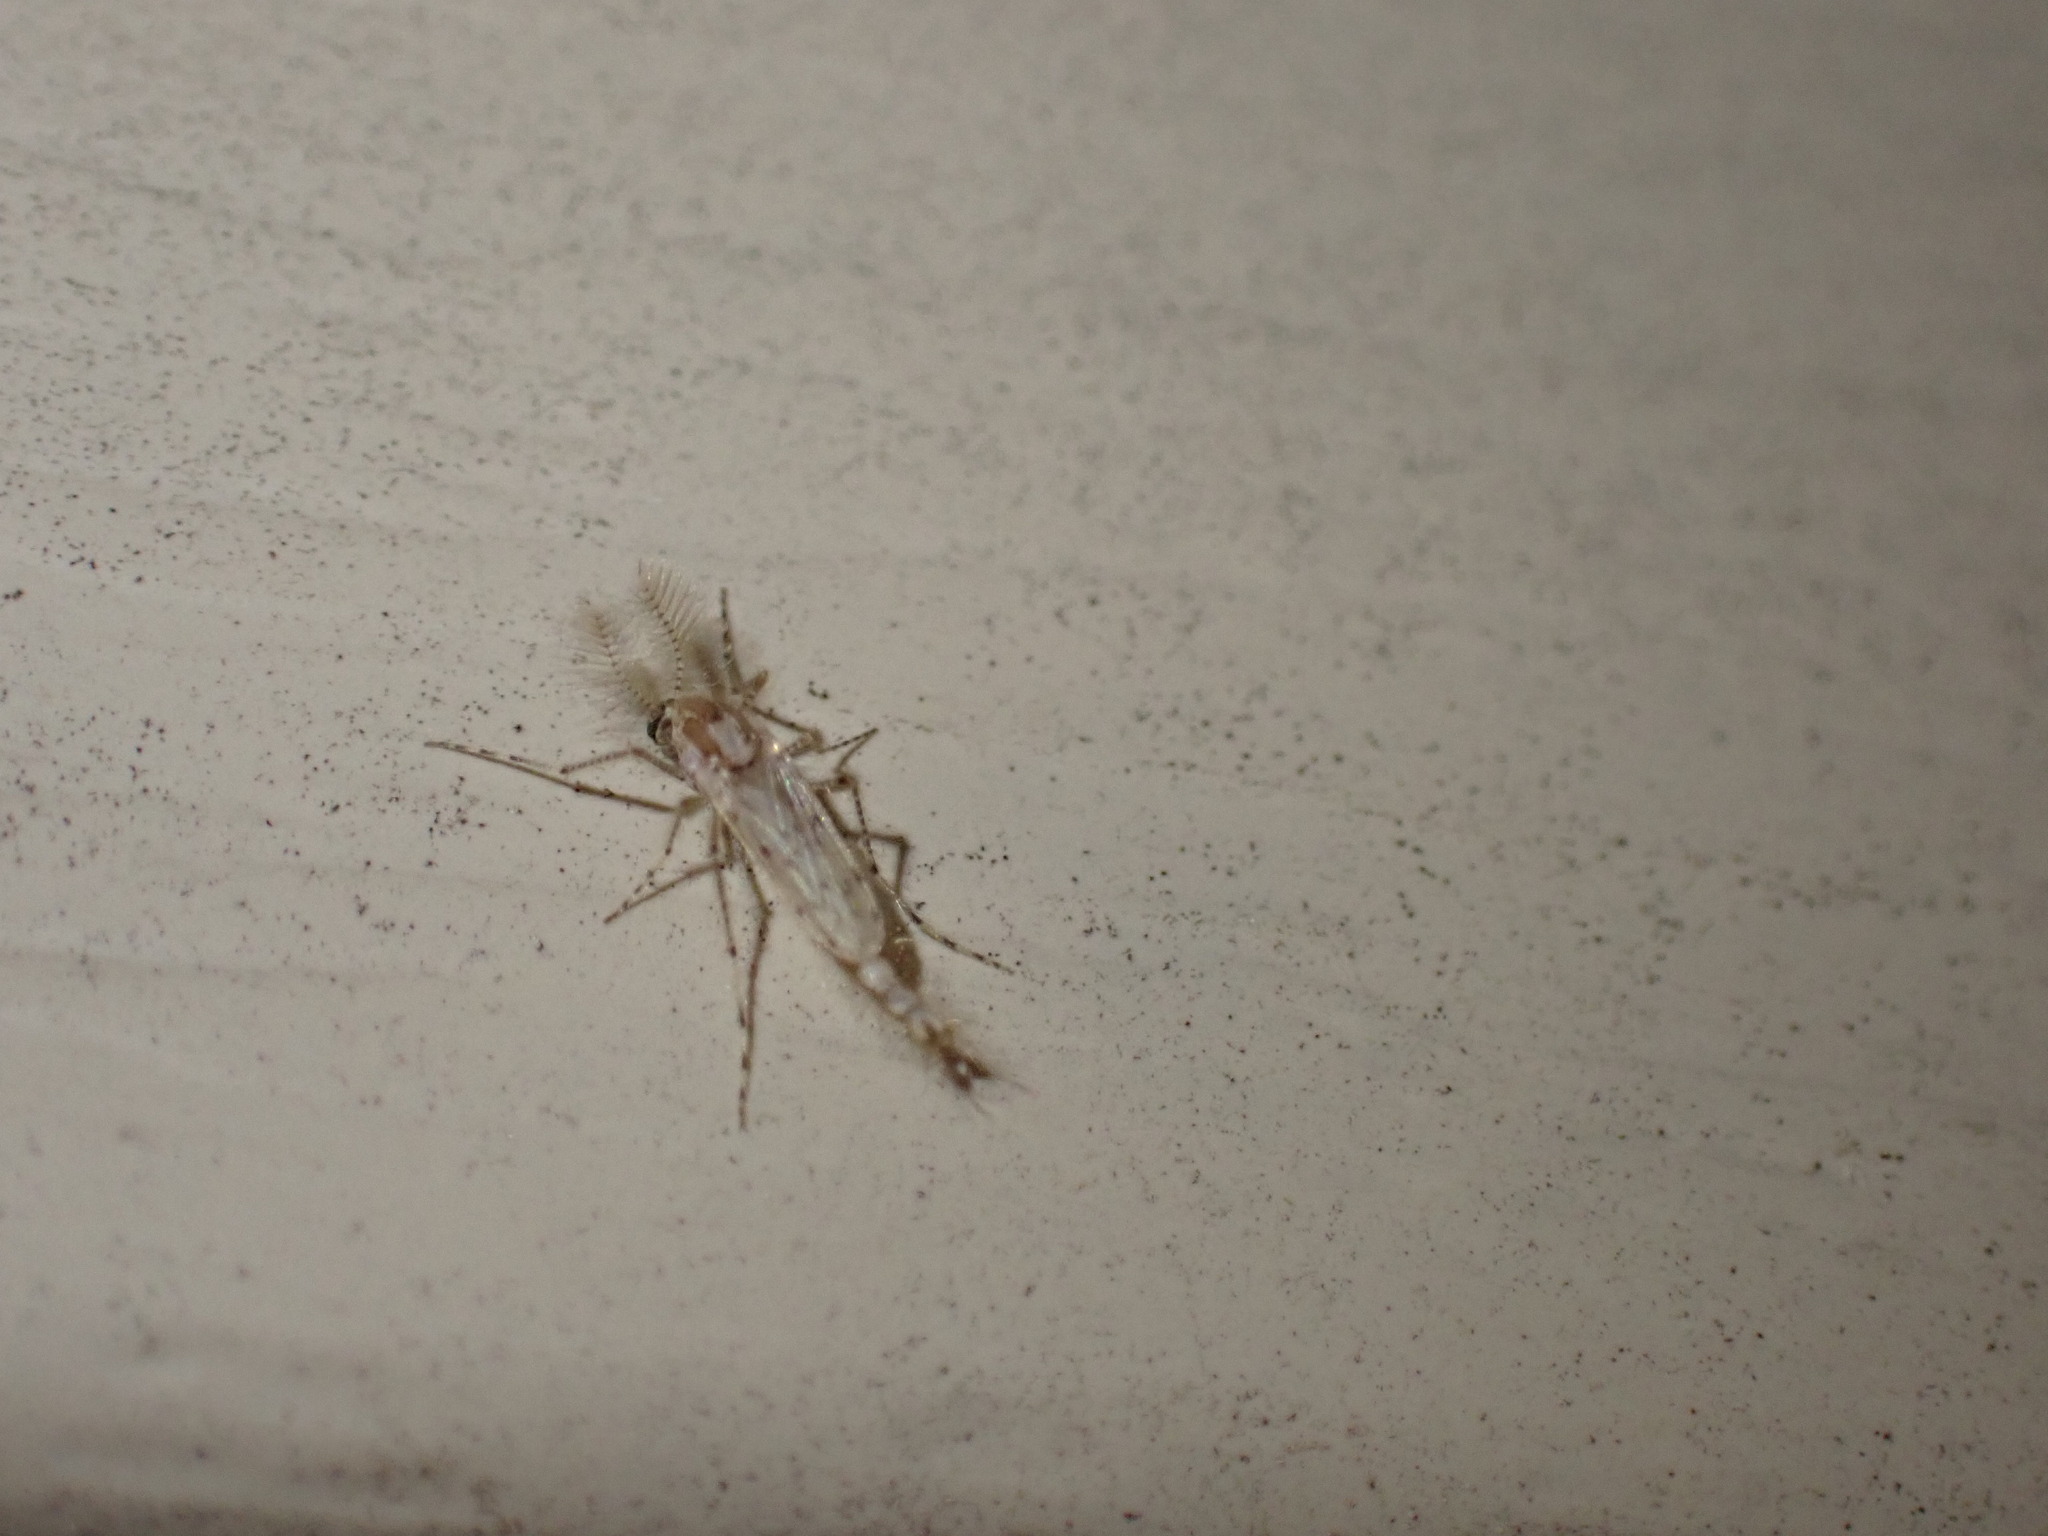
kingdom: Animalia
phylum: Arthropoda
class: Insecta
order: Diptera
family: Chaoboridae
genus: Chaoborus
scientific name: Chaoborus punctipennis
